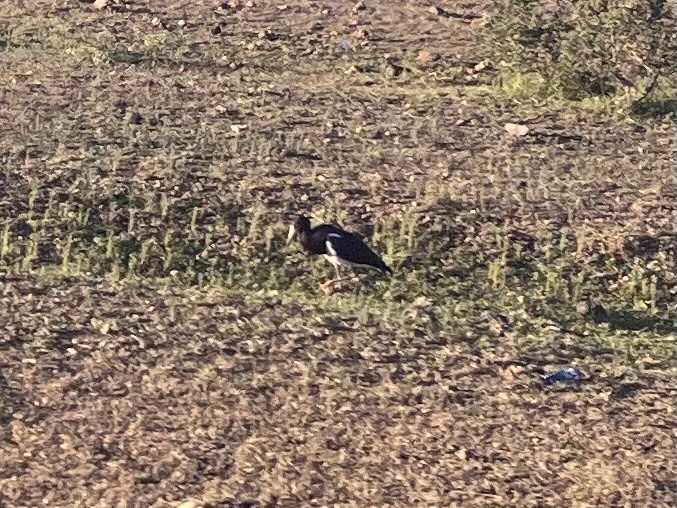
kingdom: Animalia
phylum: Chordata
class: Aves
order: Ciconiiformes
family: Ciconiidae
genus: Ciconia
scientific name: Ciconia abdimii
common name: Abdim's stork
